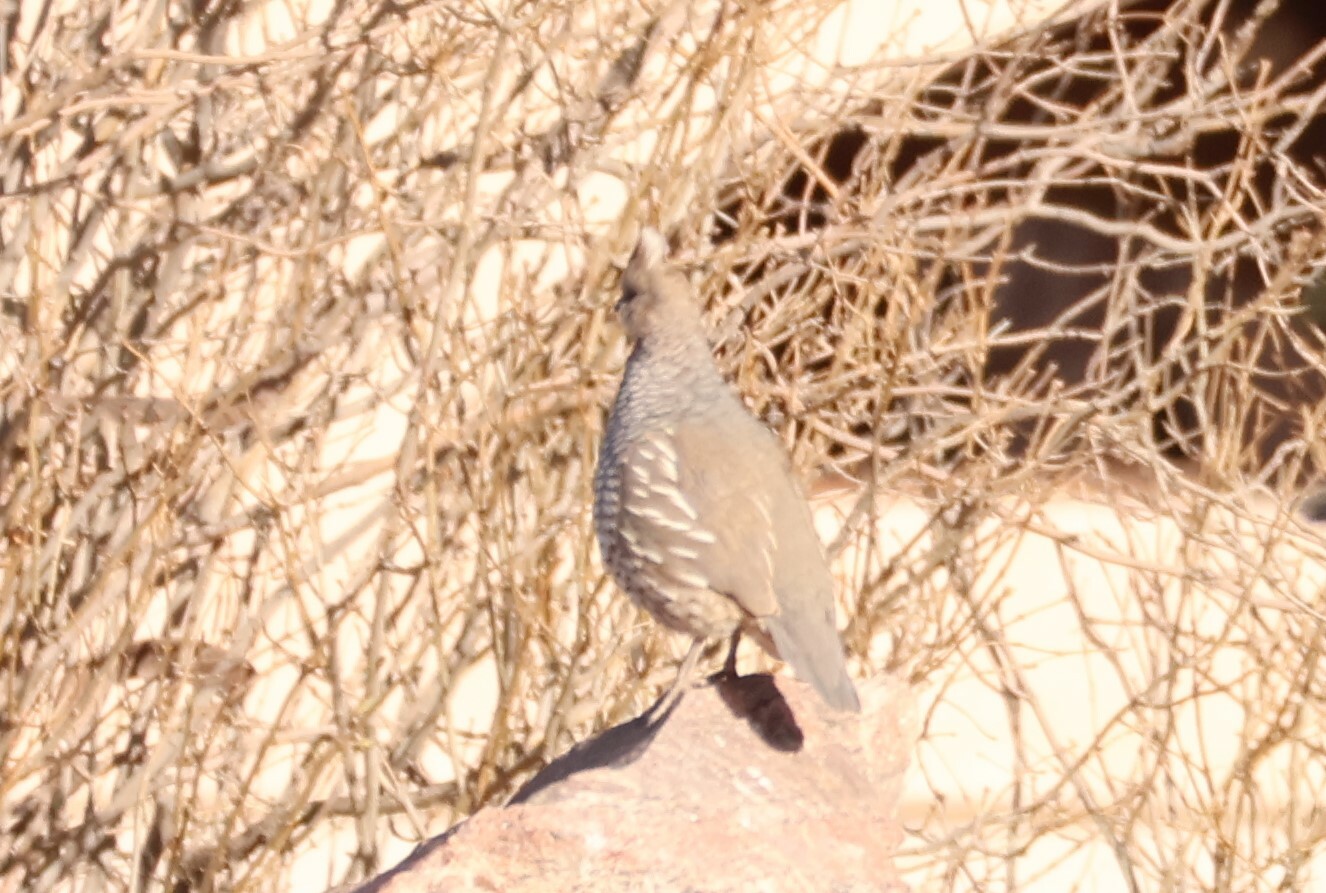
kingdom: Animalia
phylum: Chordata
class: Aves
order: Galliformes
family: Odontophoridae
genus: Callipepla
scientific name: Callipepla squamata
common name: Scaled quail
